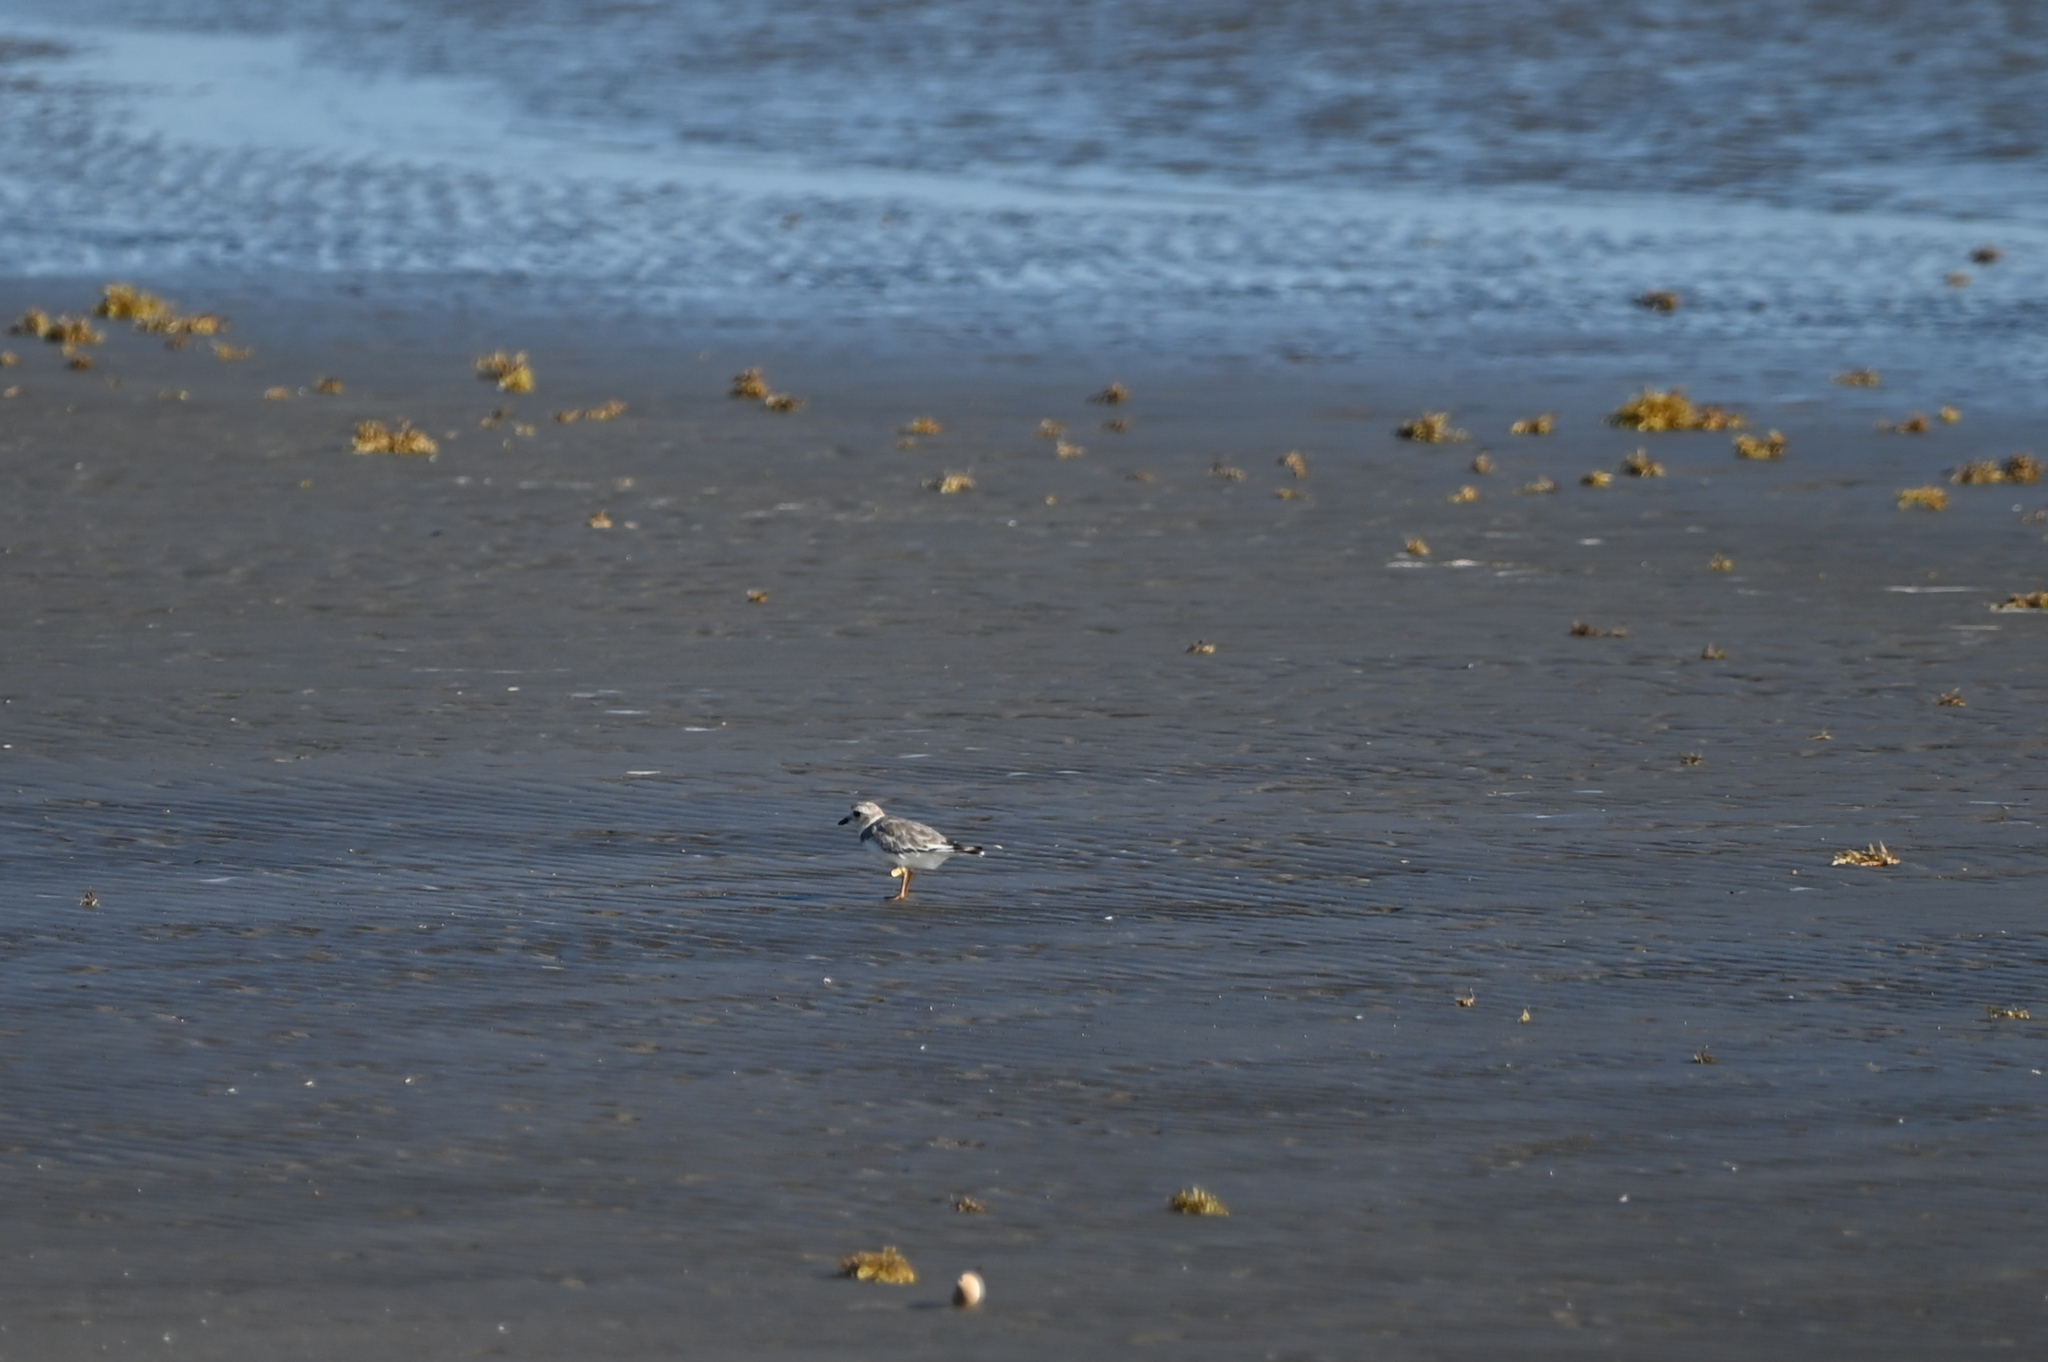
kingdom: Animalia
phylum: Chordata
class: Aves
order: Charadriiformes
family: Charadriidae
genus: Charadrius
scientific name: Charadrius melodus
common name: Piping plover
